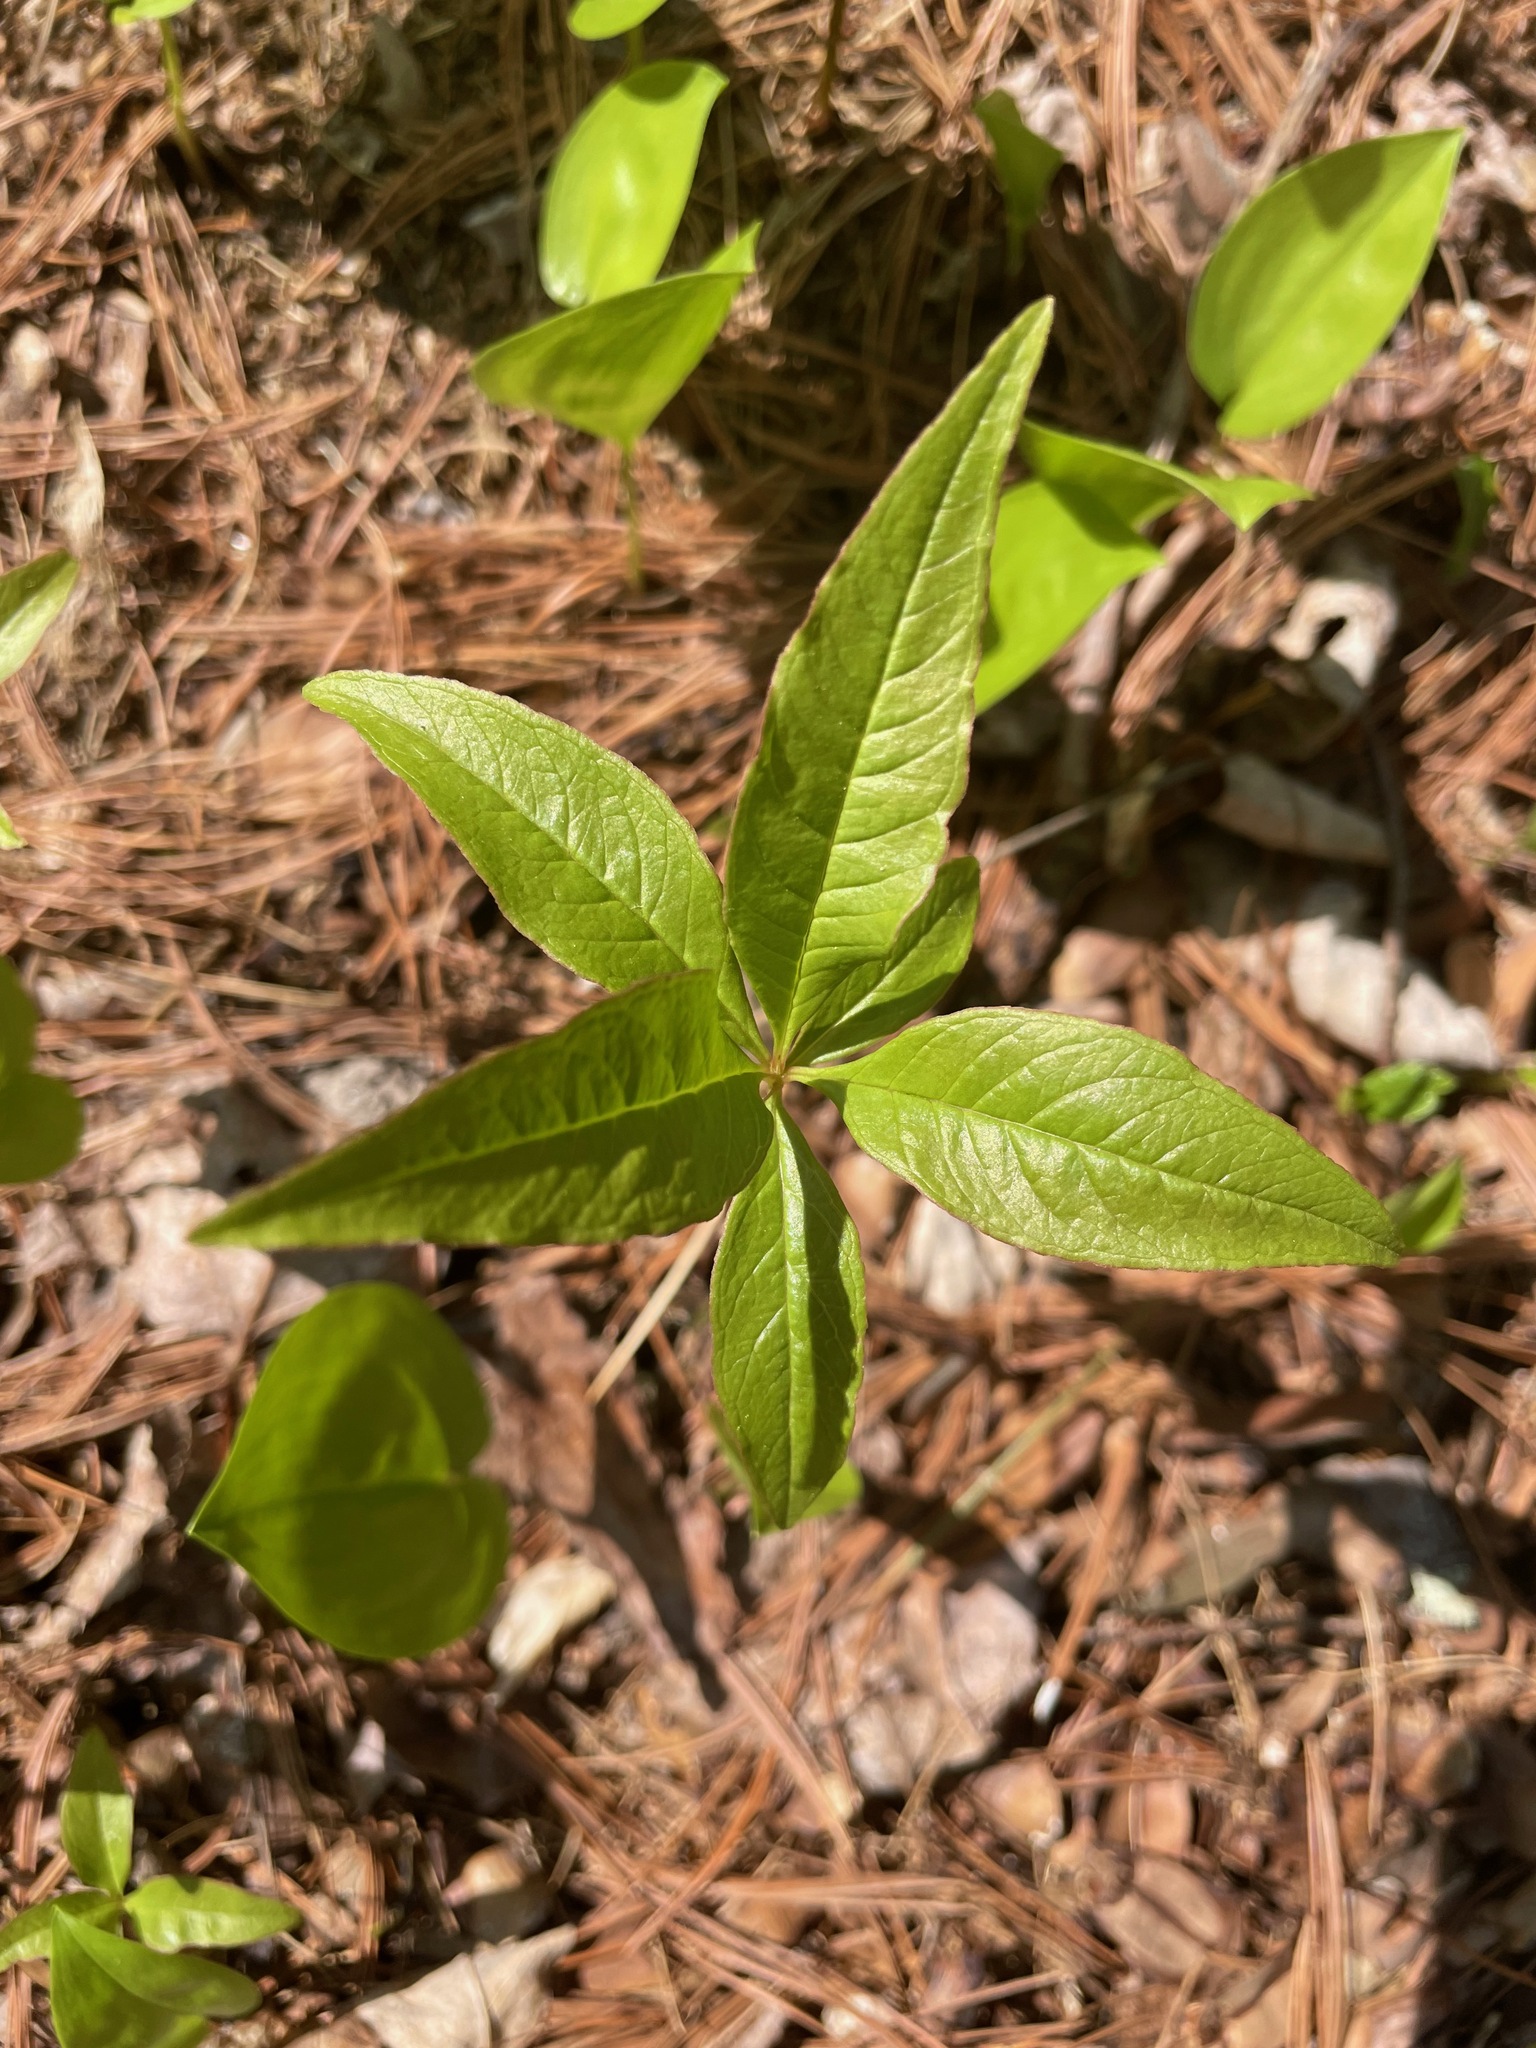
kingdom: Plantae
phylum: Tracheophyta
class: Magnoliopsida
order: Ericales
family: Primulaceae
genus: Lysimachia
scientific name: Lysimachia borealis
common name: American starflower
